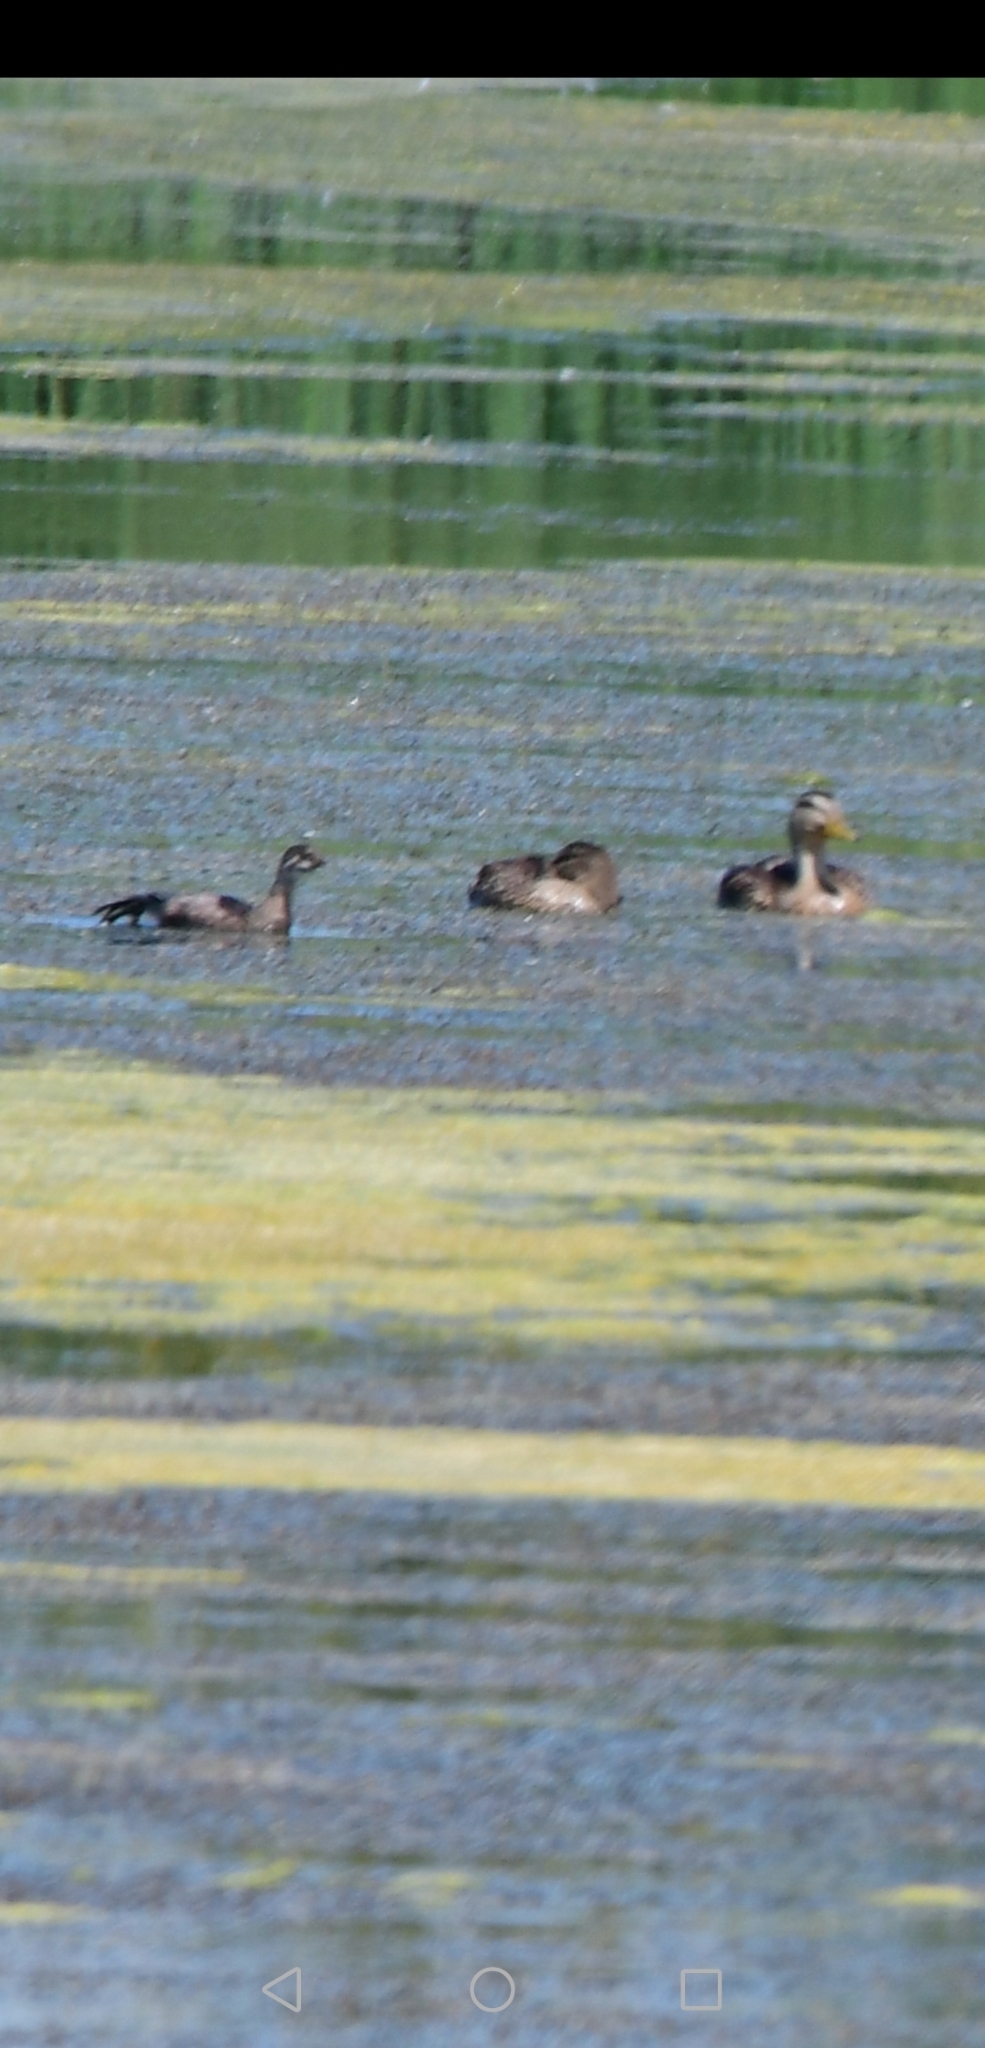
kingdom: Animalia
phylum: Chordata
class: Aves
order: Podicipediformes
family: Podicipedidae
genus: Podilymbus
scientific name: Podilymbus podiceps
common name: Pied-billed grebe
